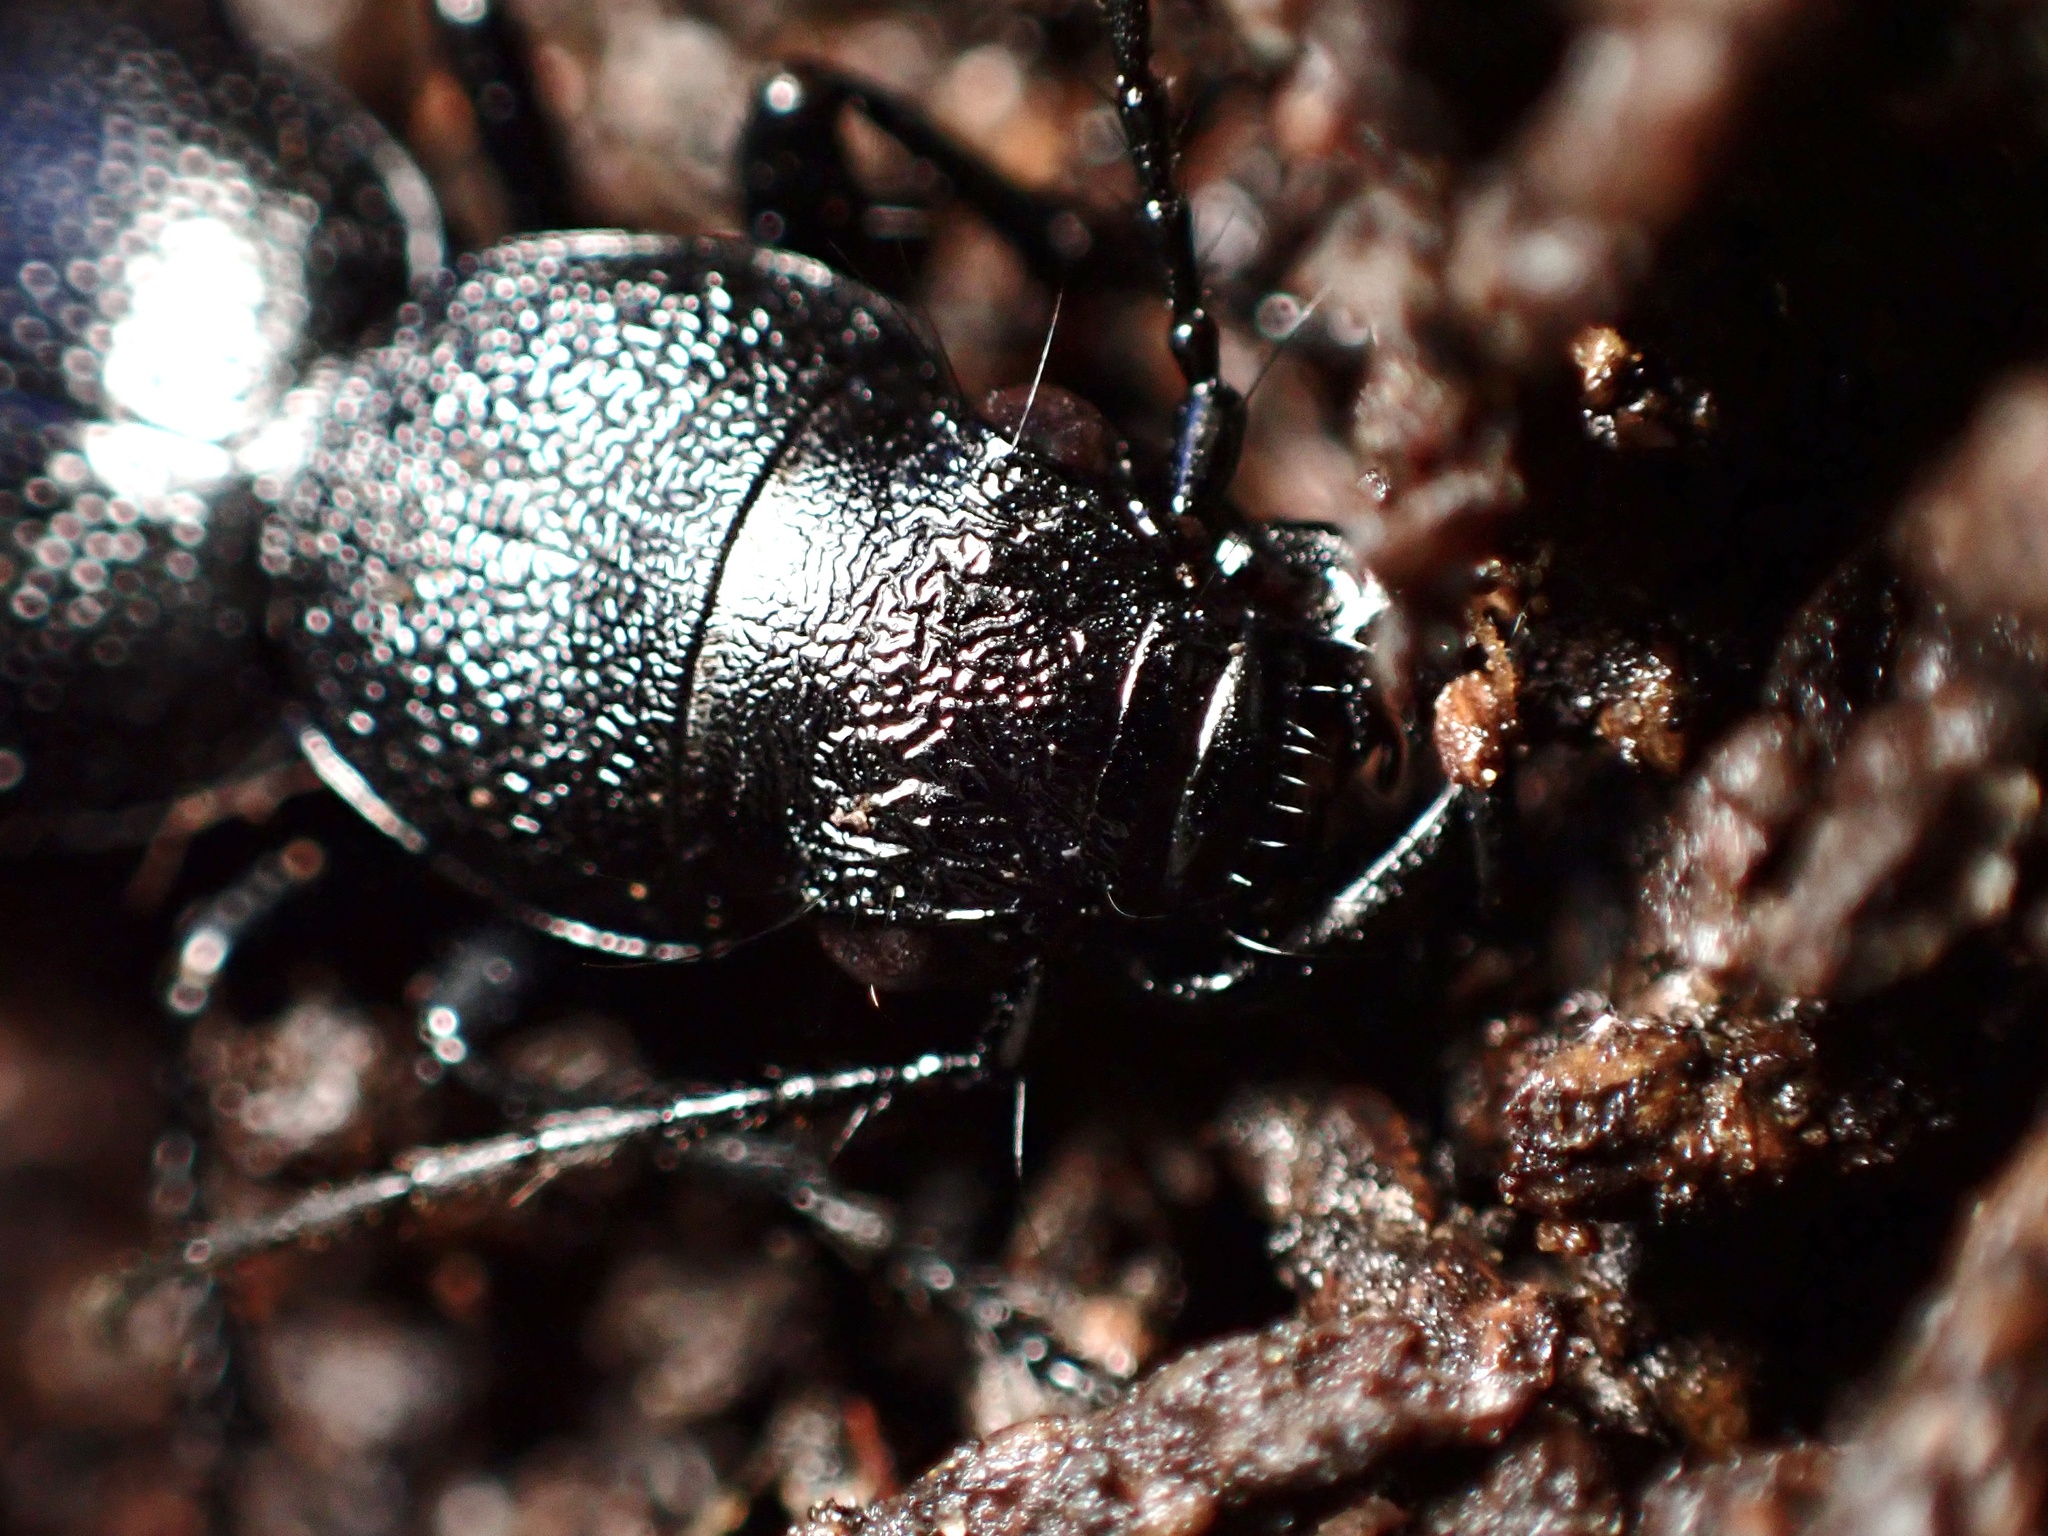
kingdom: Animalia
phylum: Arthropoda
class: Insecta
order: Coleoptera
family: Carabidae
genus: Omus
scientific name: Omus californicus
